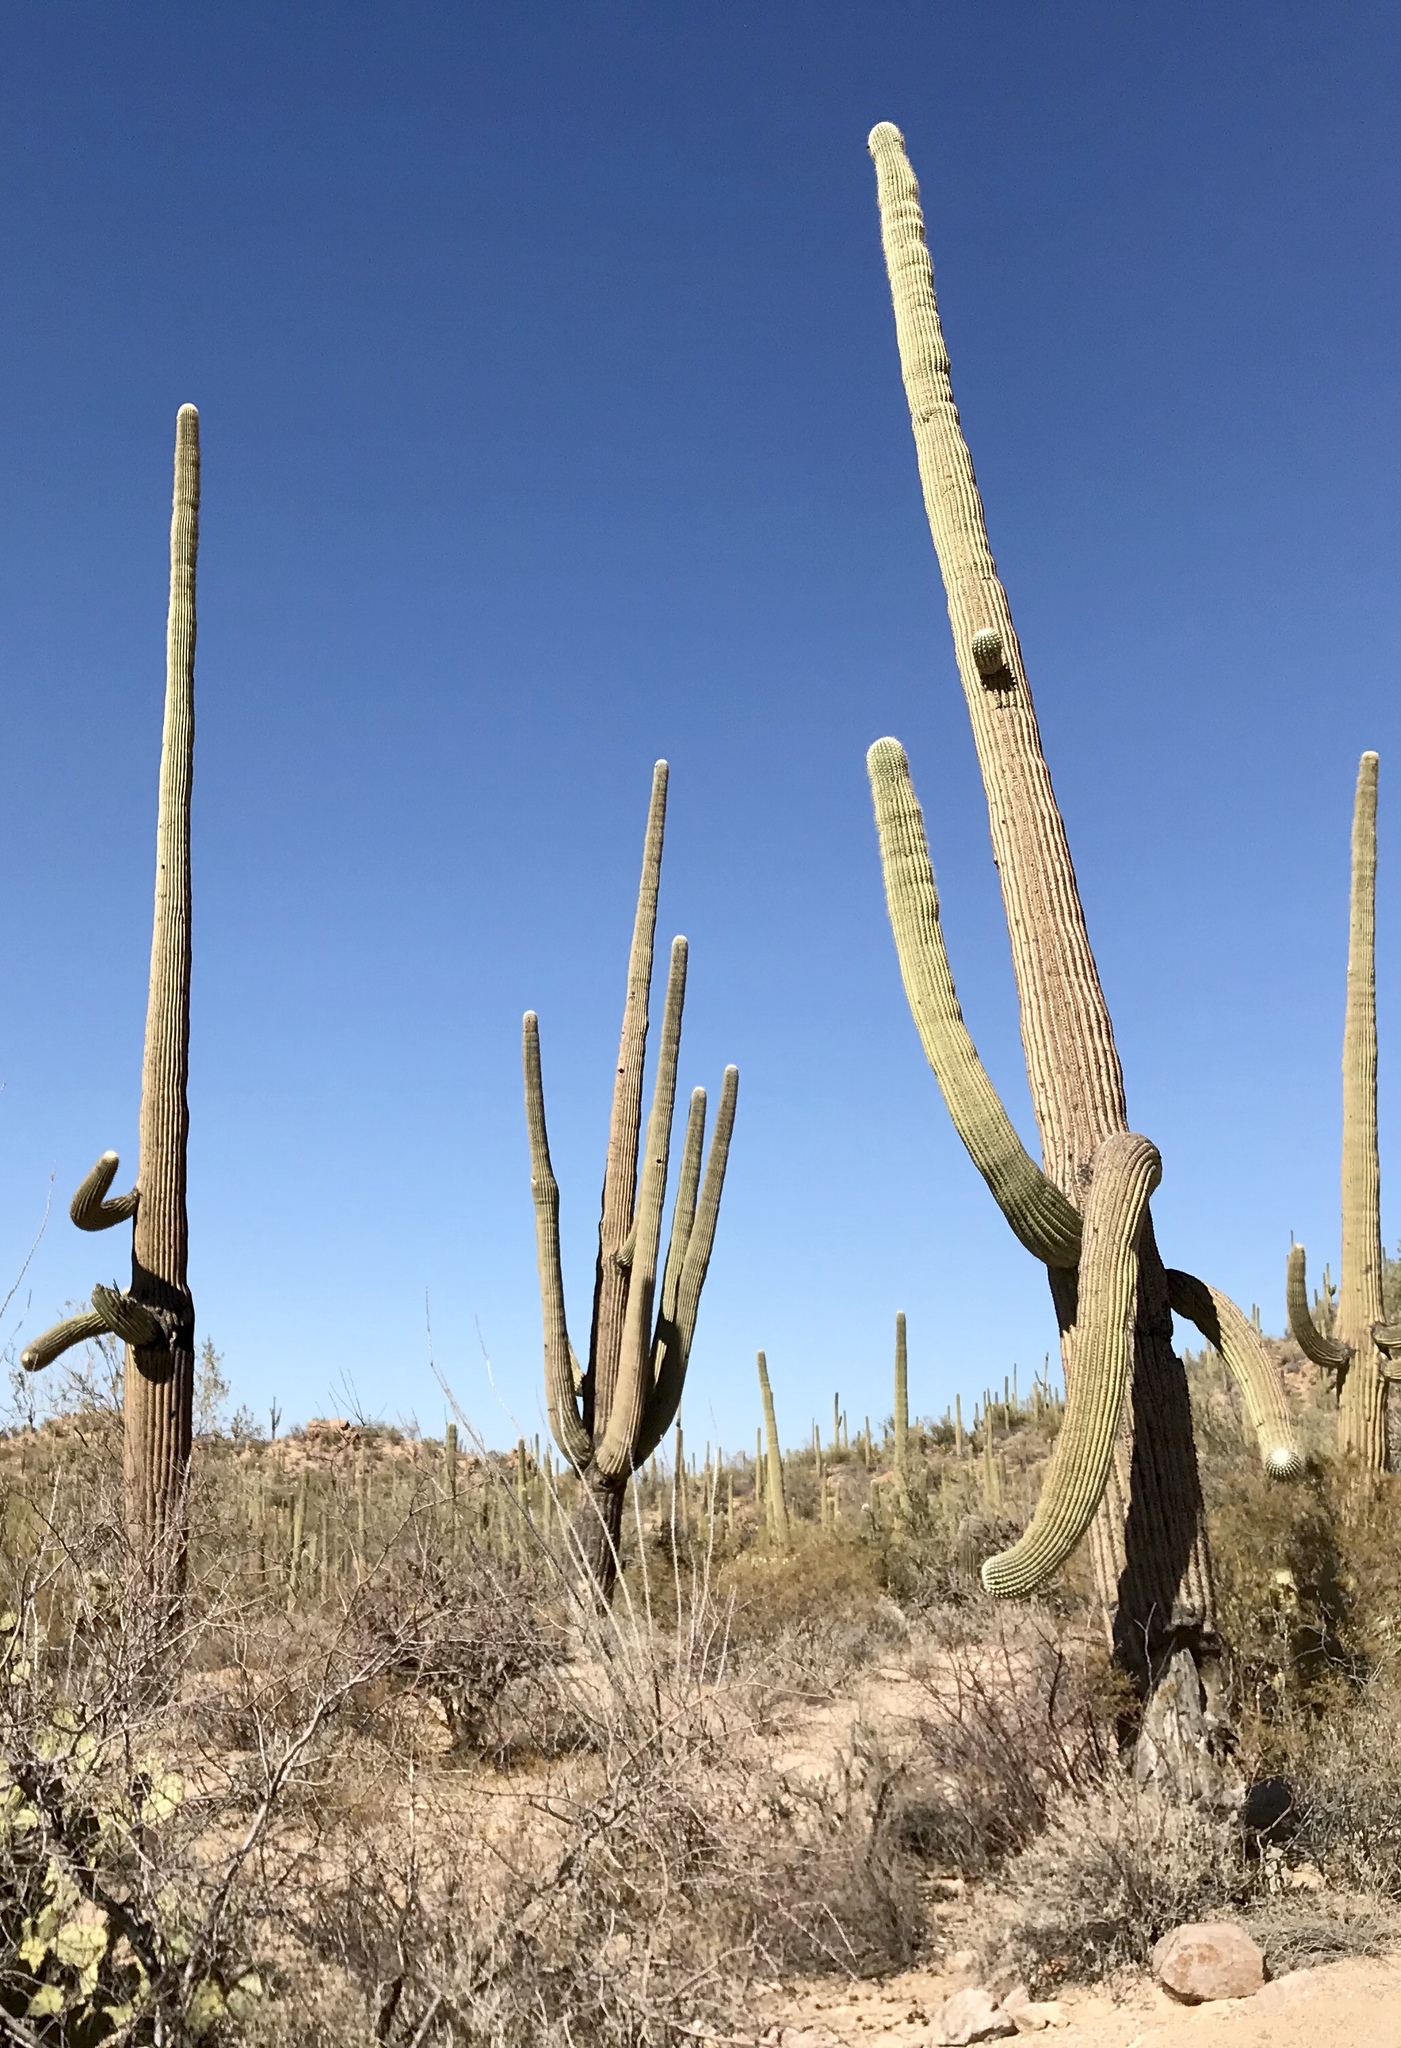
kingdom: Plantae
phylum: Tracheophyta
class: Magnoliopsida
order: Caryophyllales
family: Cactaceae
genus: Carnegiea
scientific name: Carnegiea gigantea
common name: Saguaro
